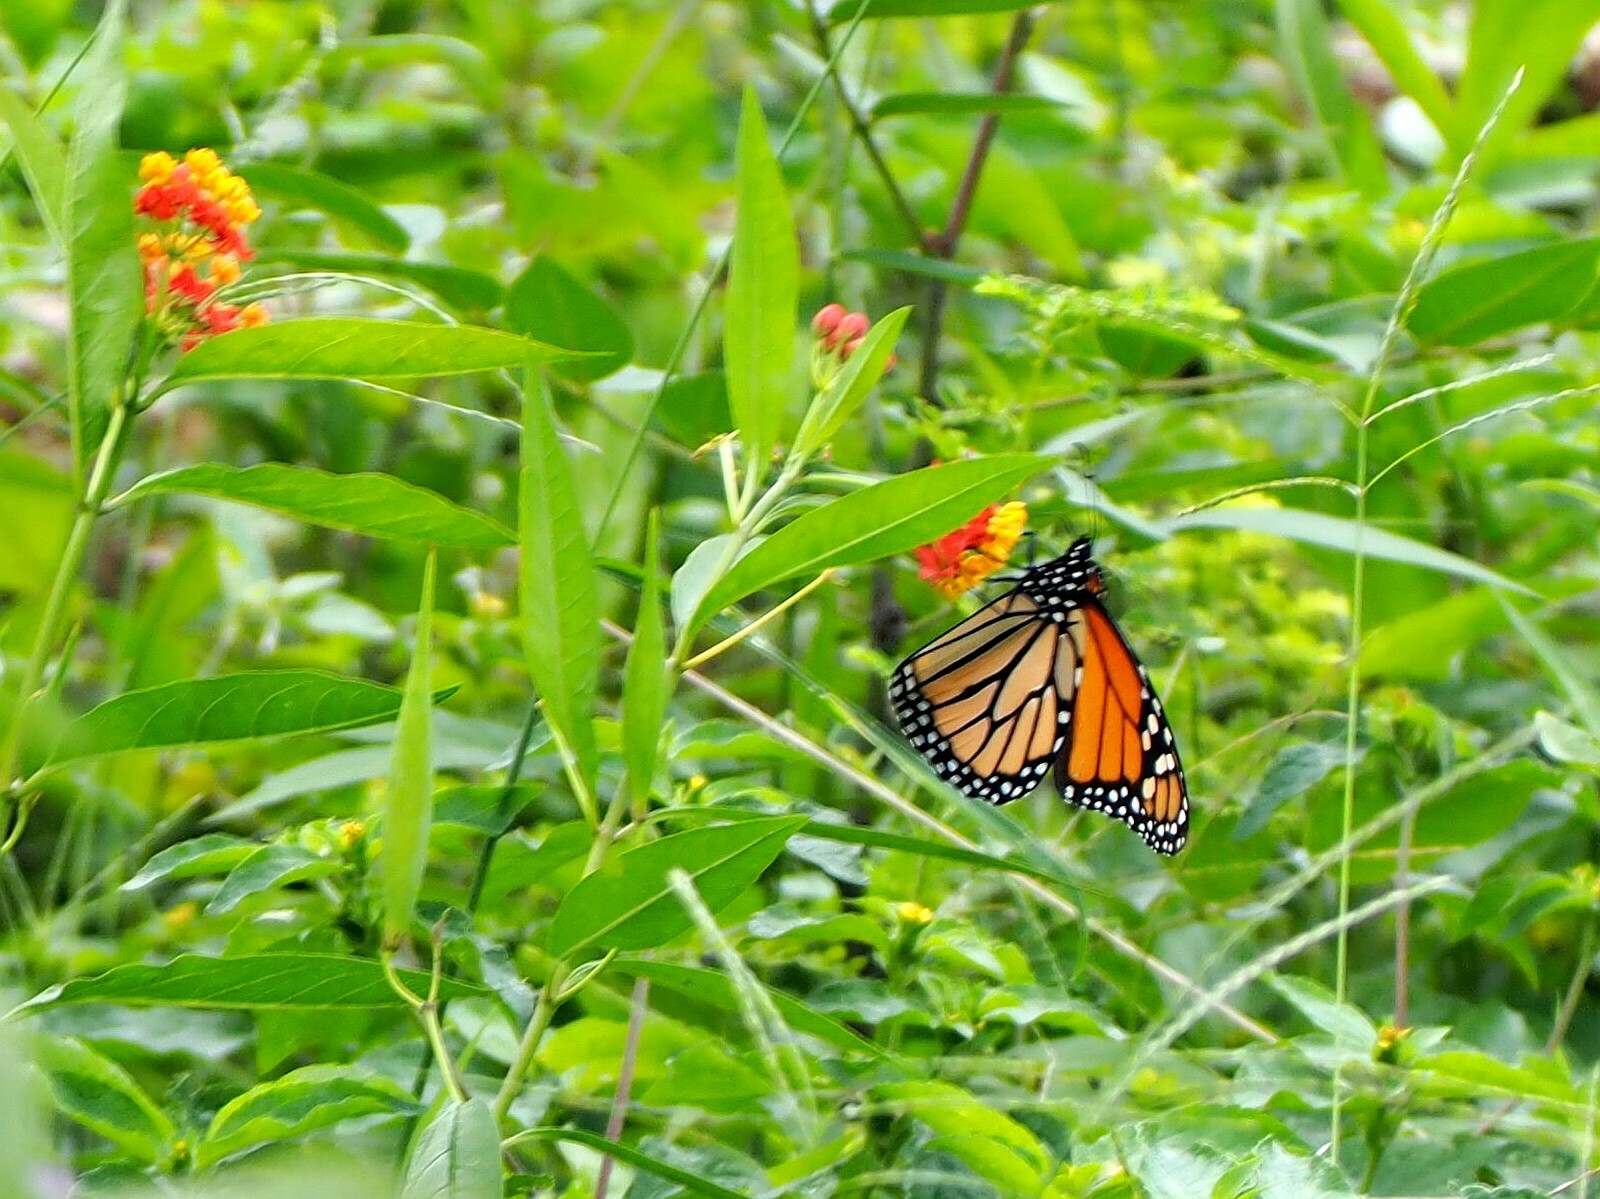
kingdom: Animalia
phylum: Arthropoda
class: Insecta
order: Lepidoptera
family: Nymphalidae
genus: Danaus
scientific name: Danaus plexippus
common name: Monarch
